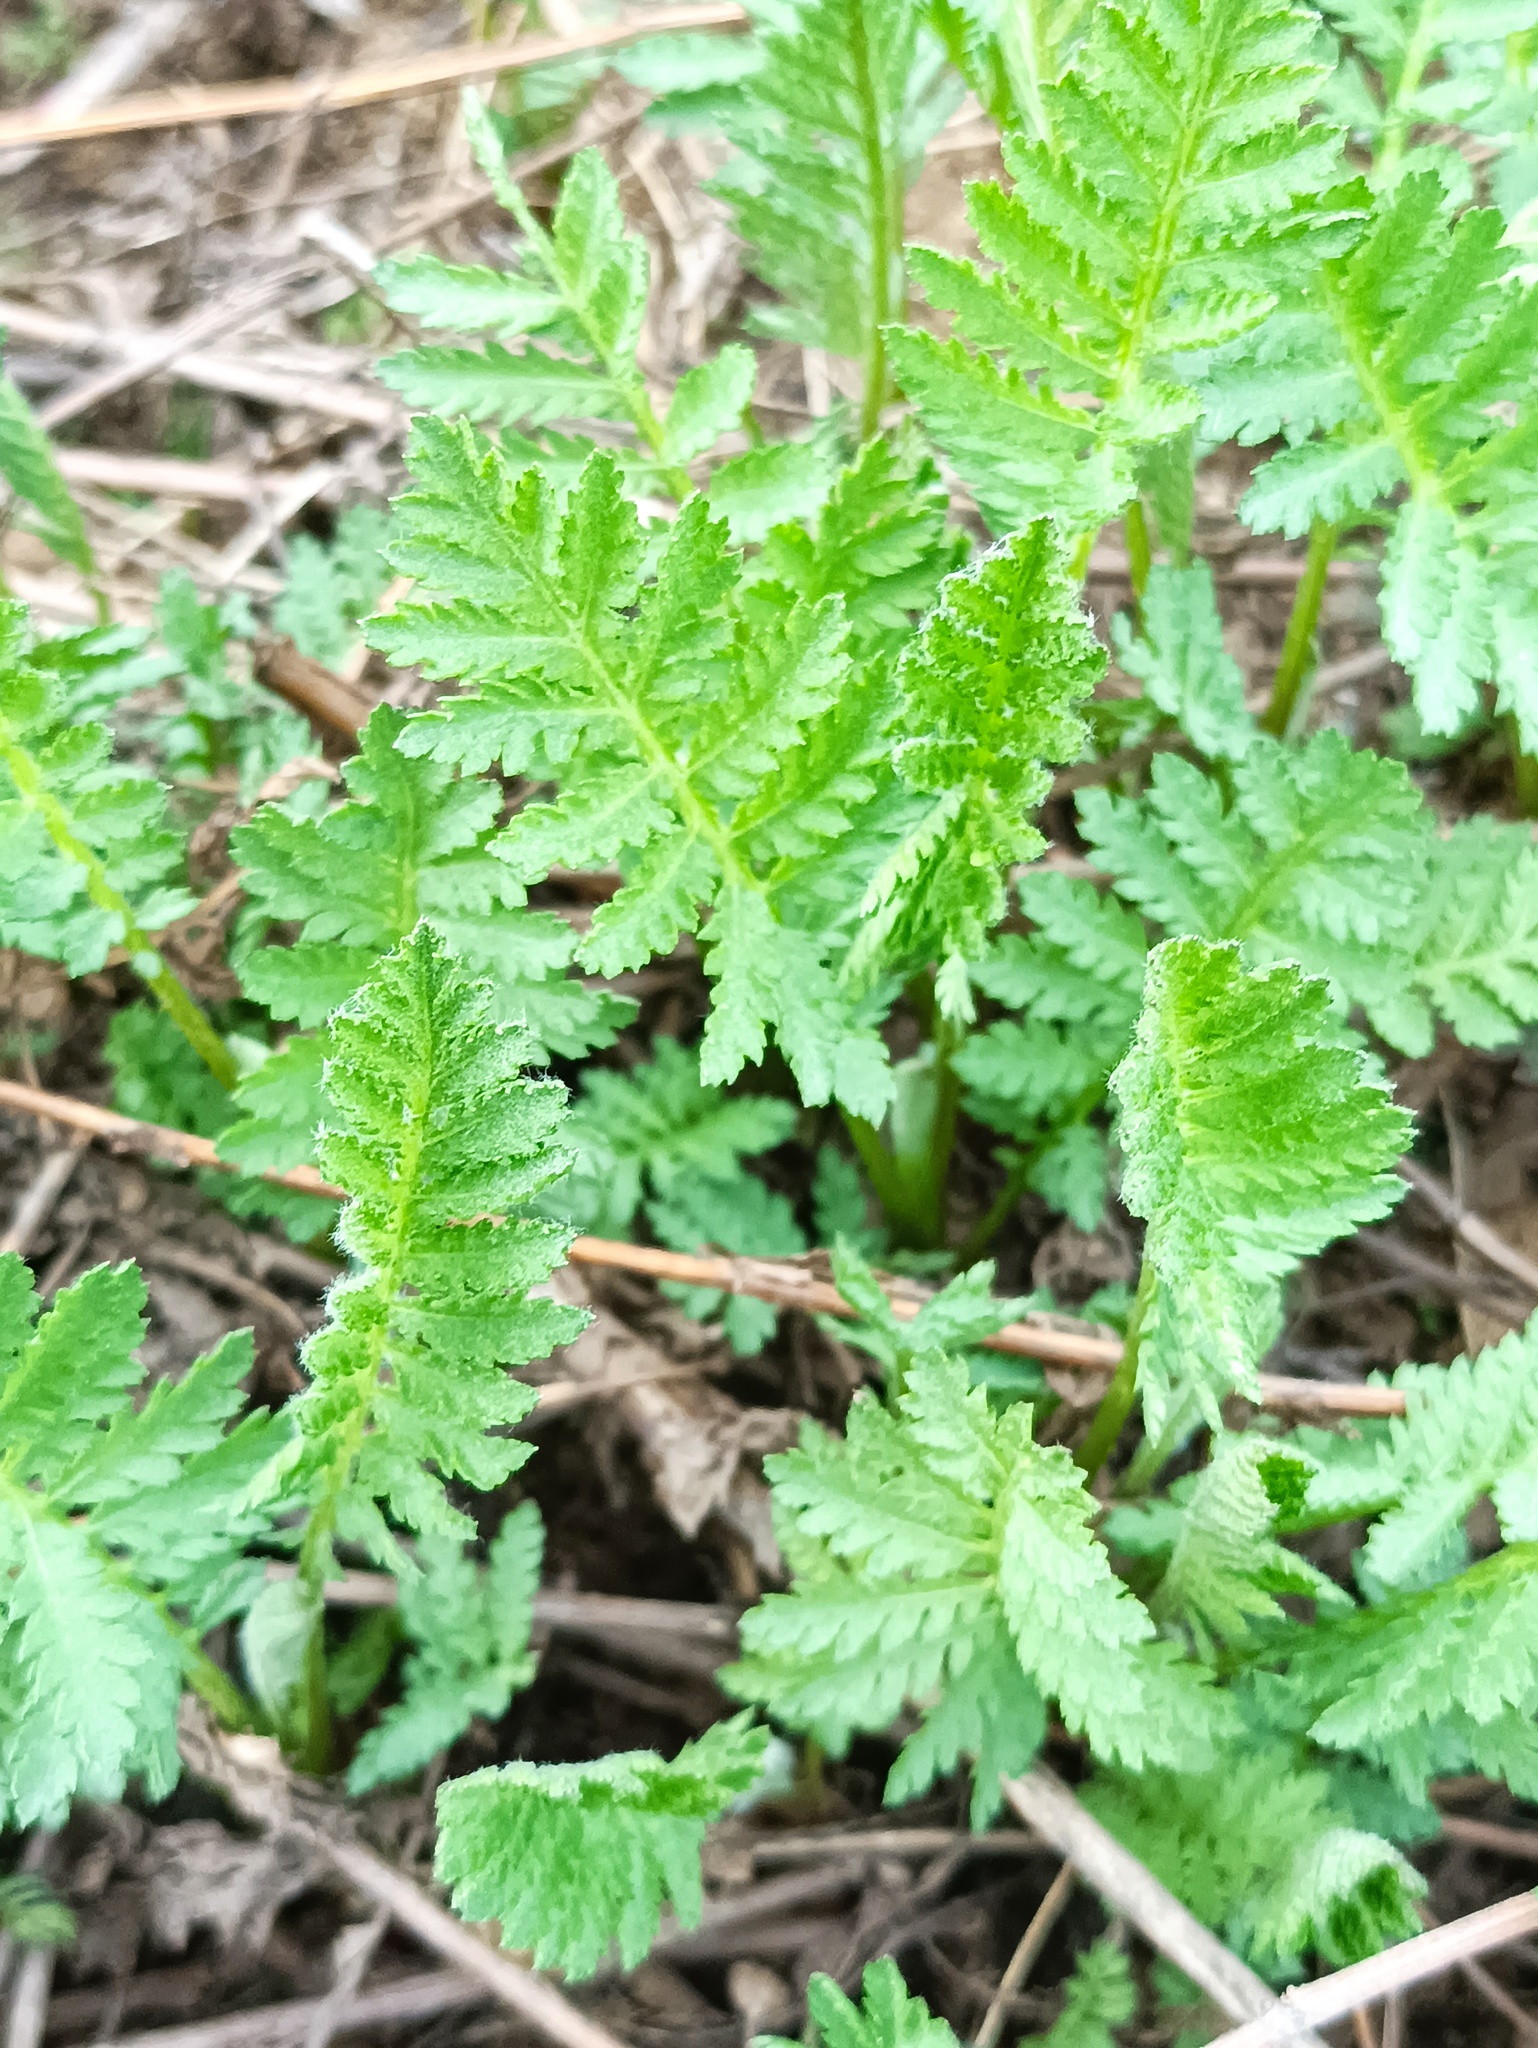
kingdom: Plantae
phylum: Tracheophyta
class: Magnoliopsida
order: Asterales
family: Asteraceae
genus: Tanacetum
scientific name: Tanacetum vulgare
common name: Common tansy
